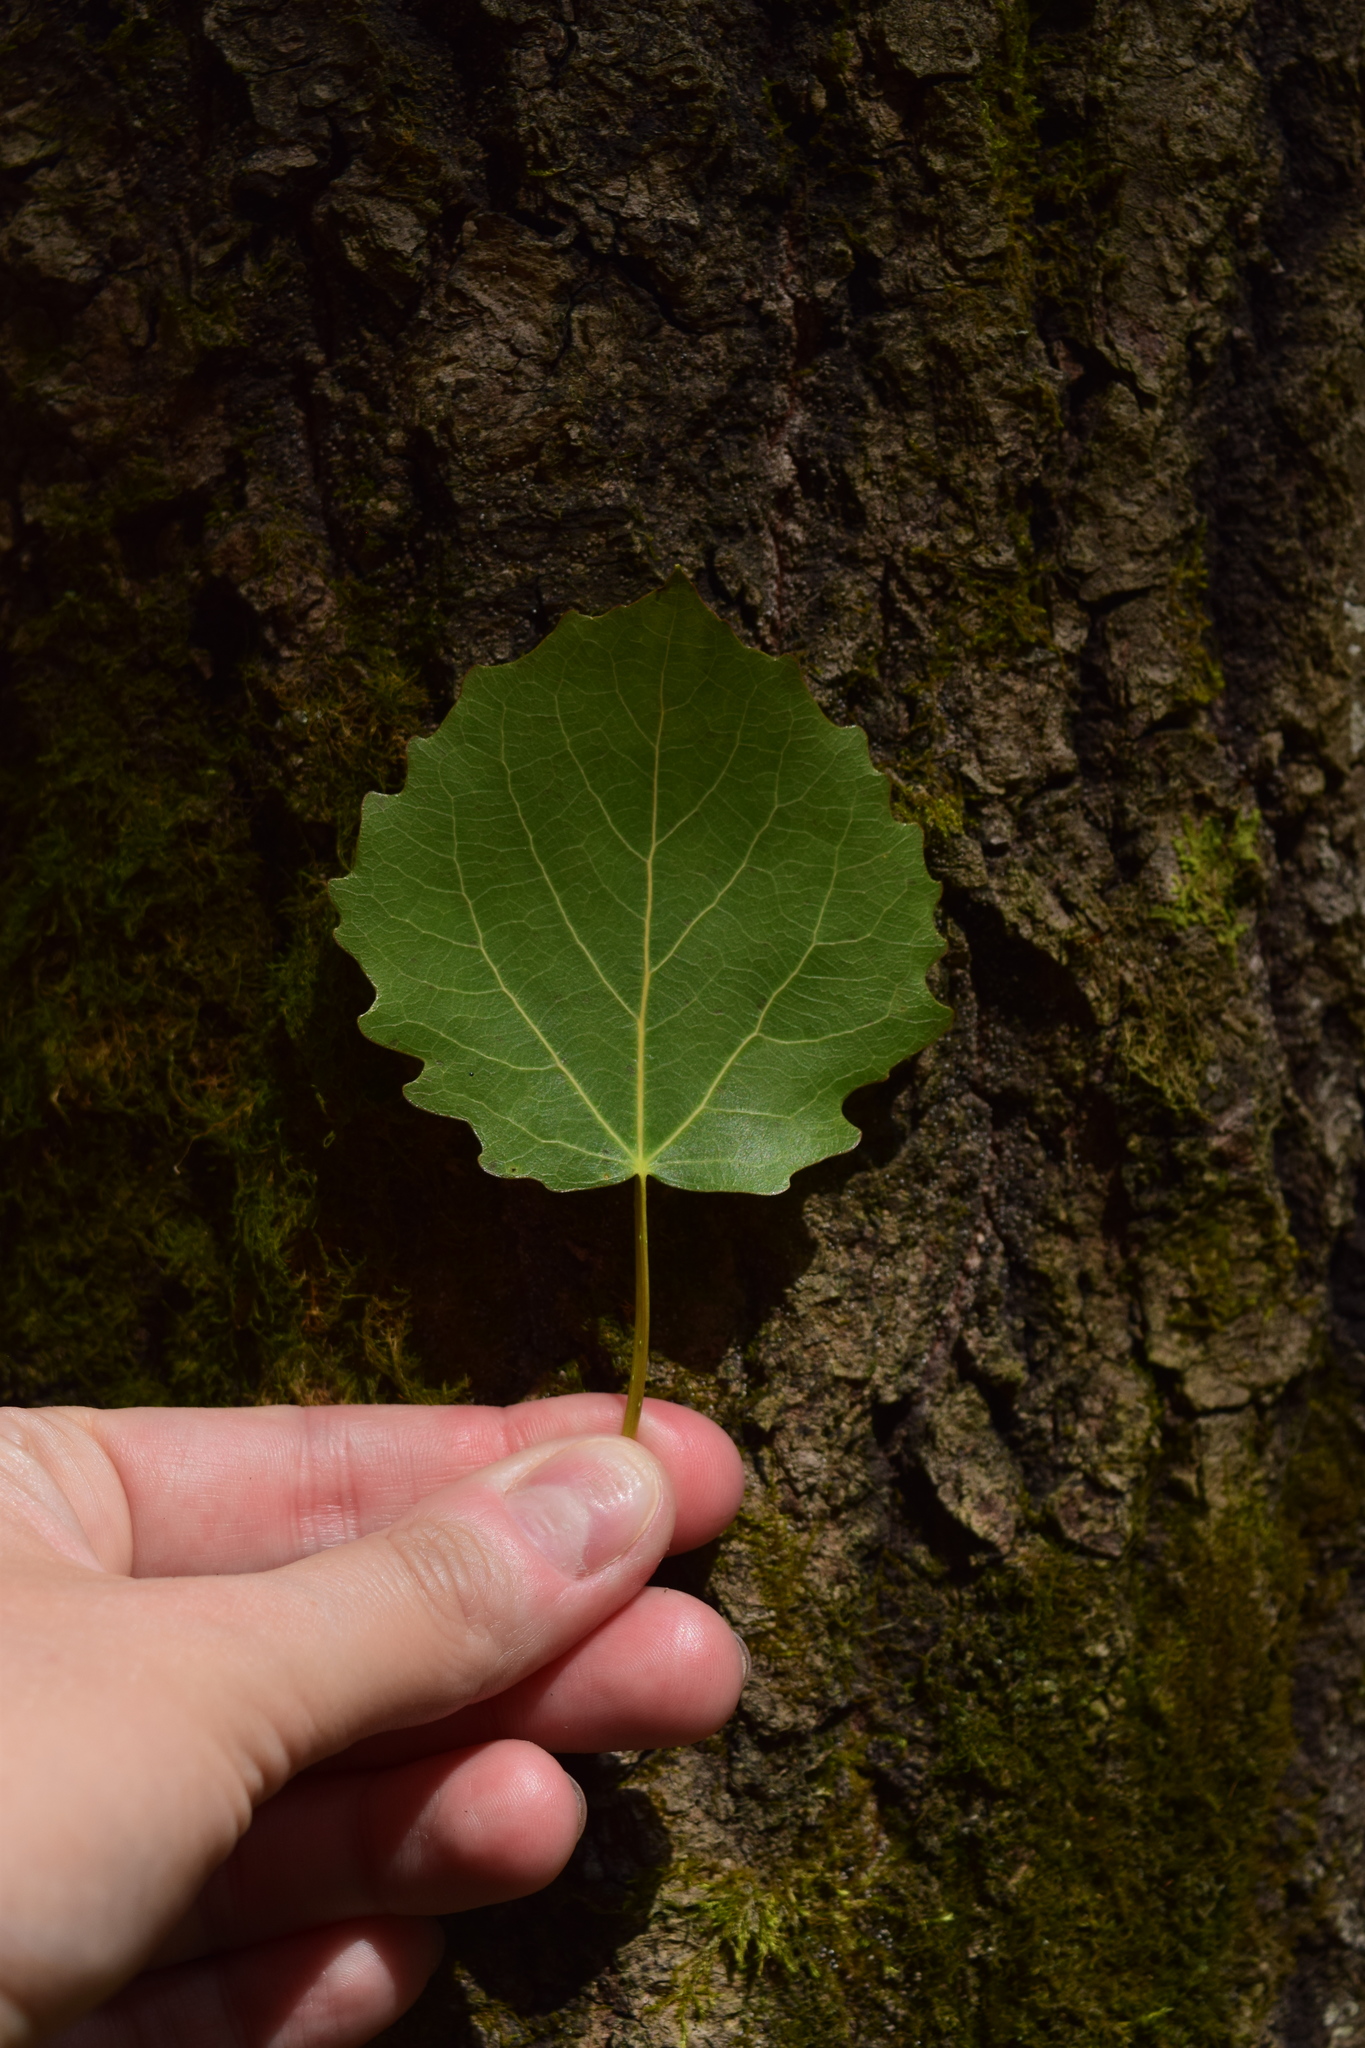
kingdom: Plantae
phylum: Tracheophyta
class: Magnoliopsida
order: Malpighiales
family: Salicaceae
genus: Populus
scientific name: Populus tremula
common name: European aspen
